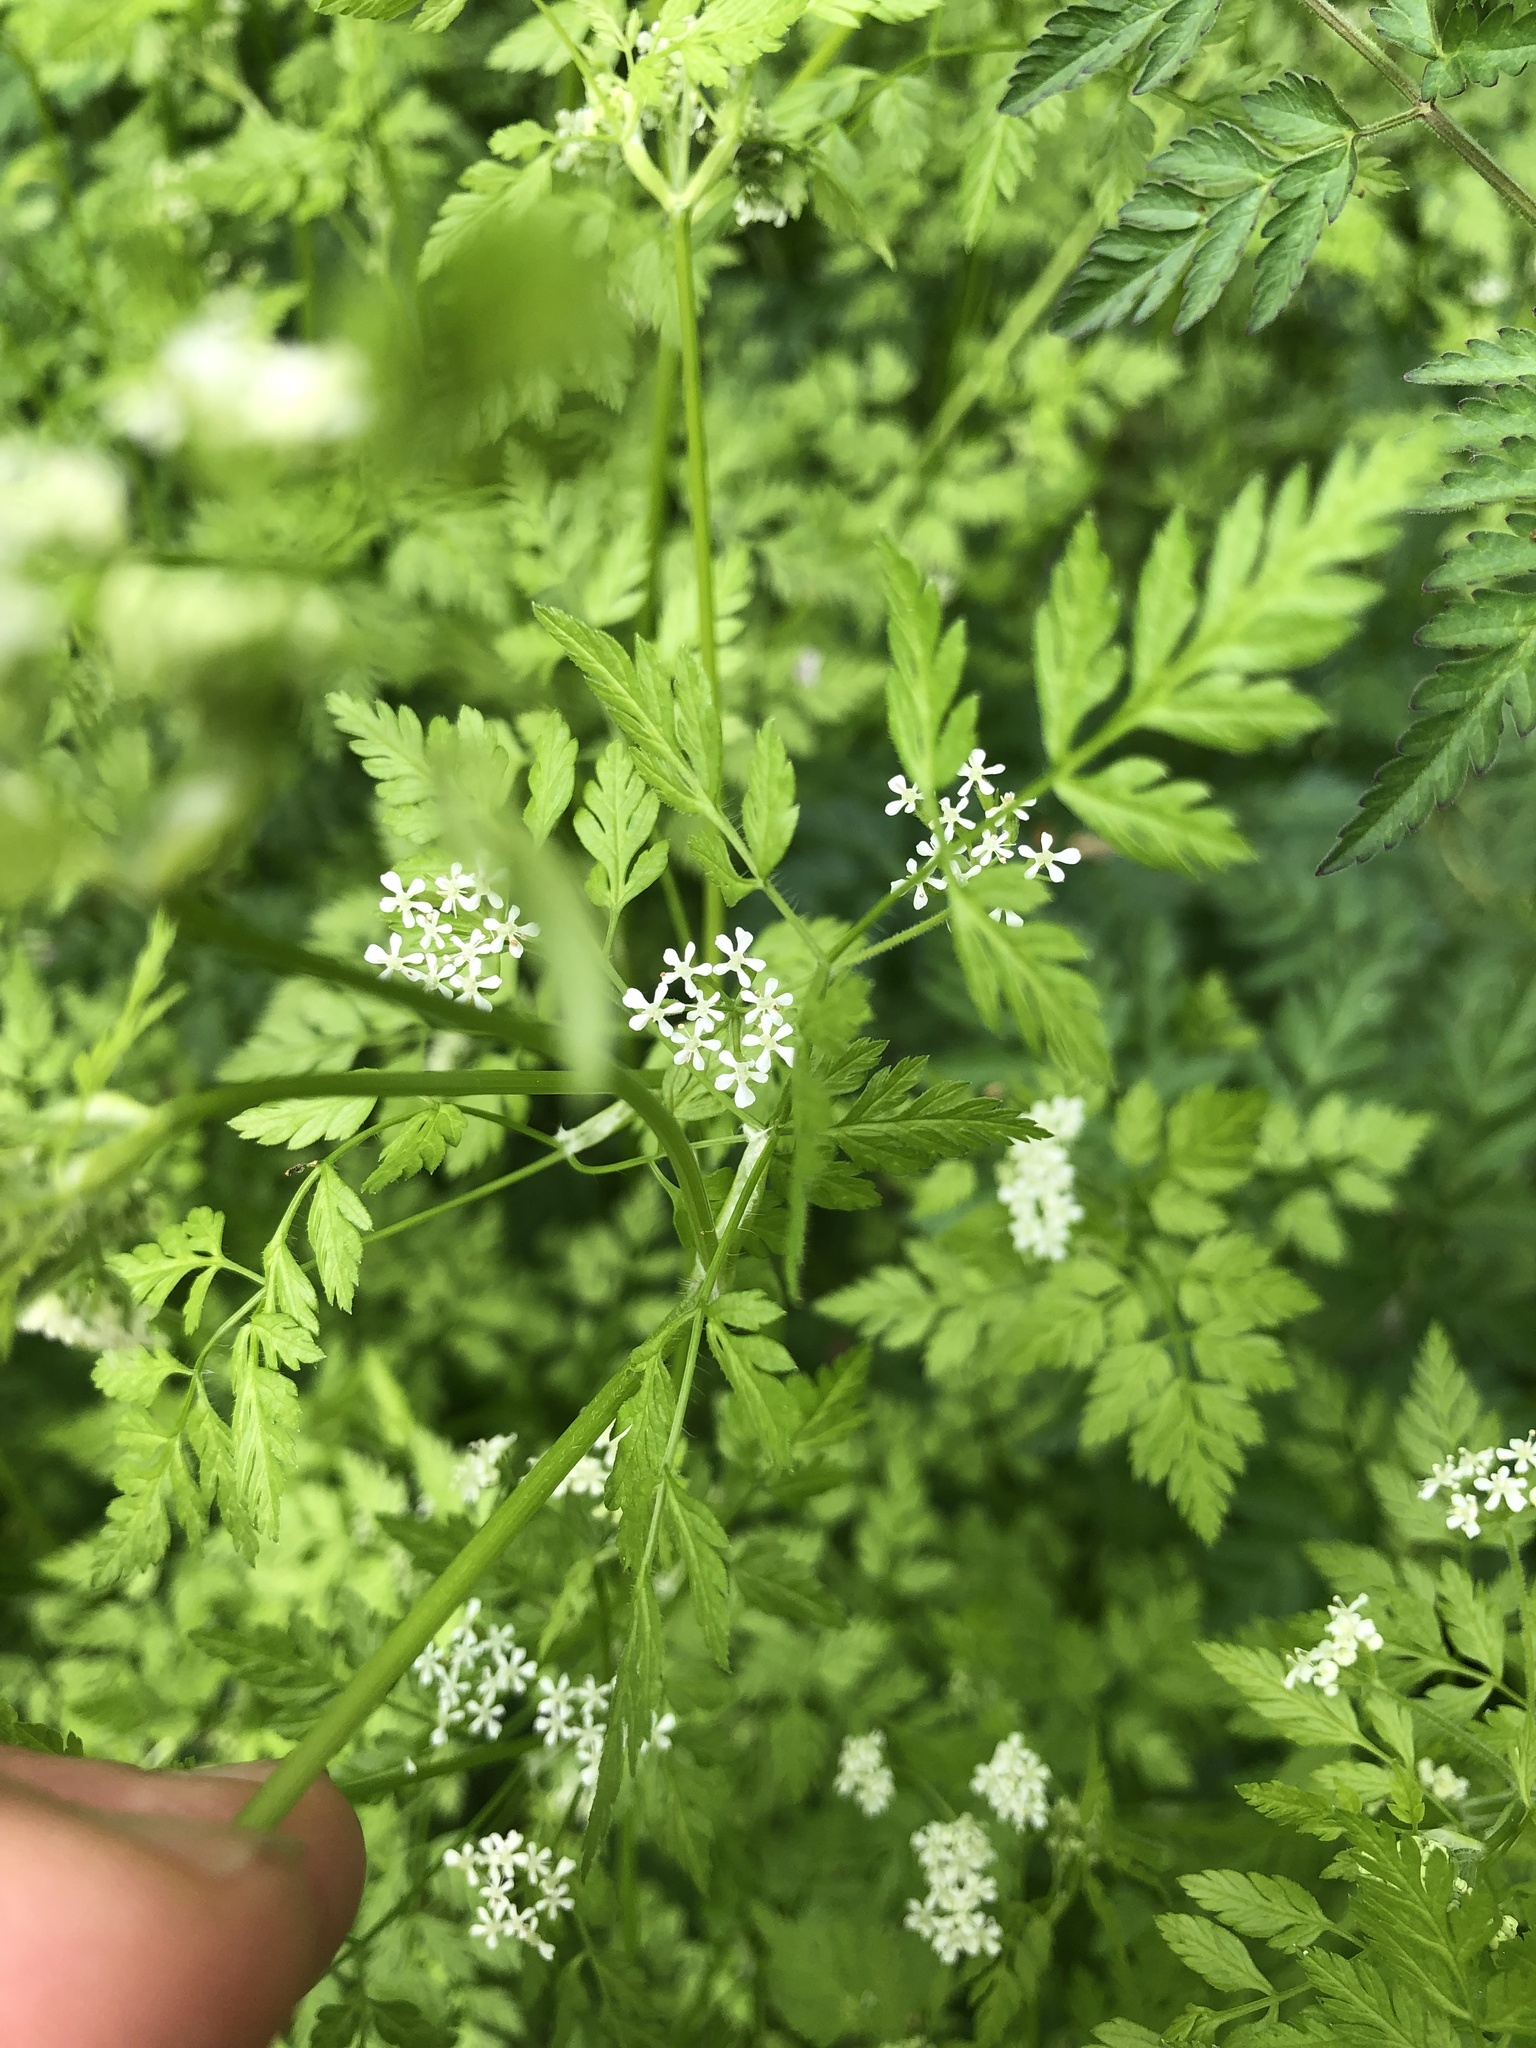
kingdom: Plantae
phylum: Tracheophyta
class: Magnoliopsida
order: Apiales
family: Apiaceae
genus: Anthriscus
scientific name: Anthriscus cerefolium
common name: Garden chervil
